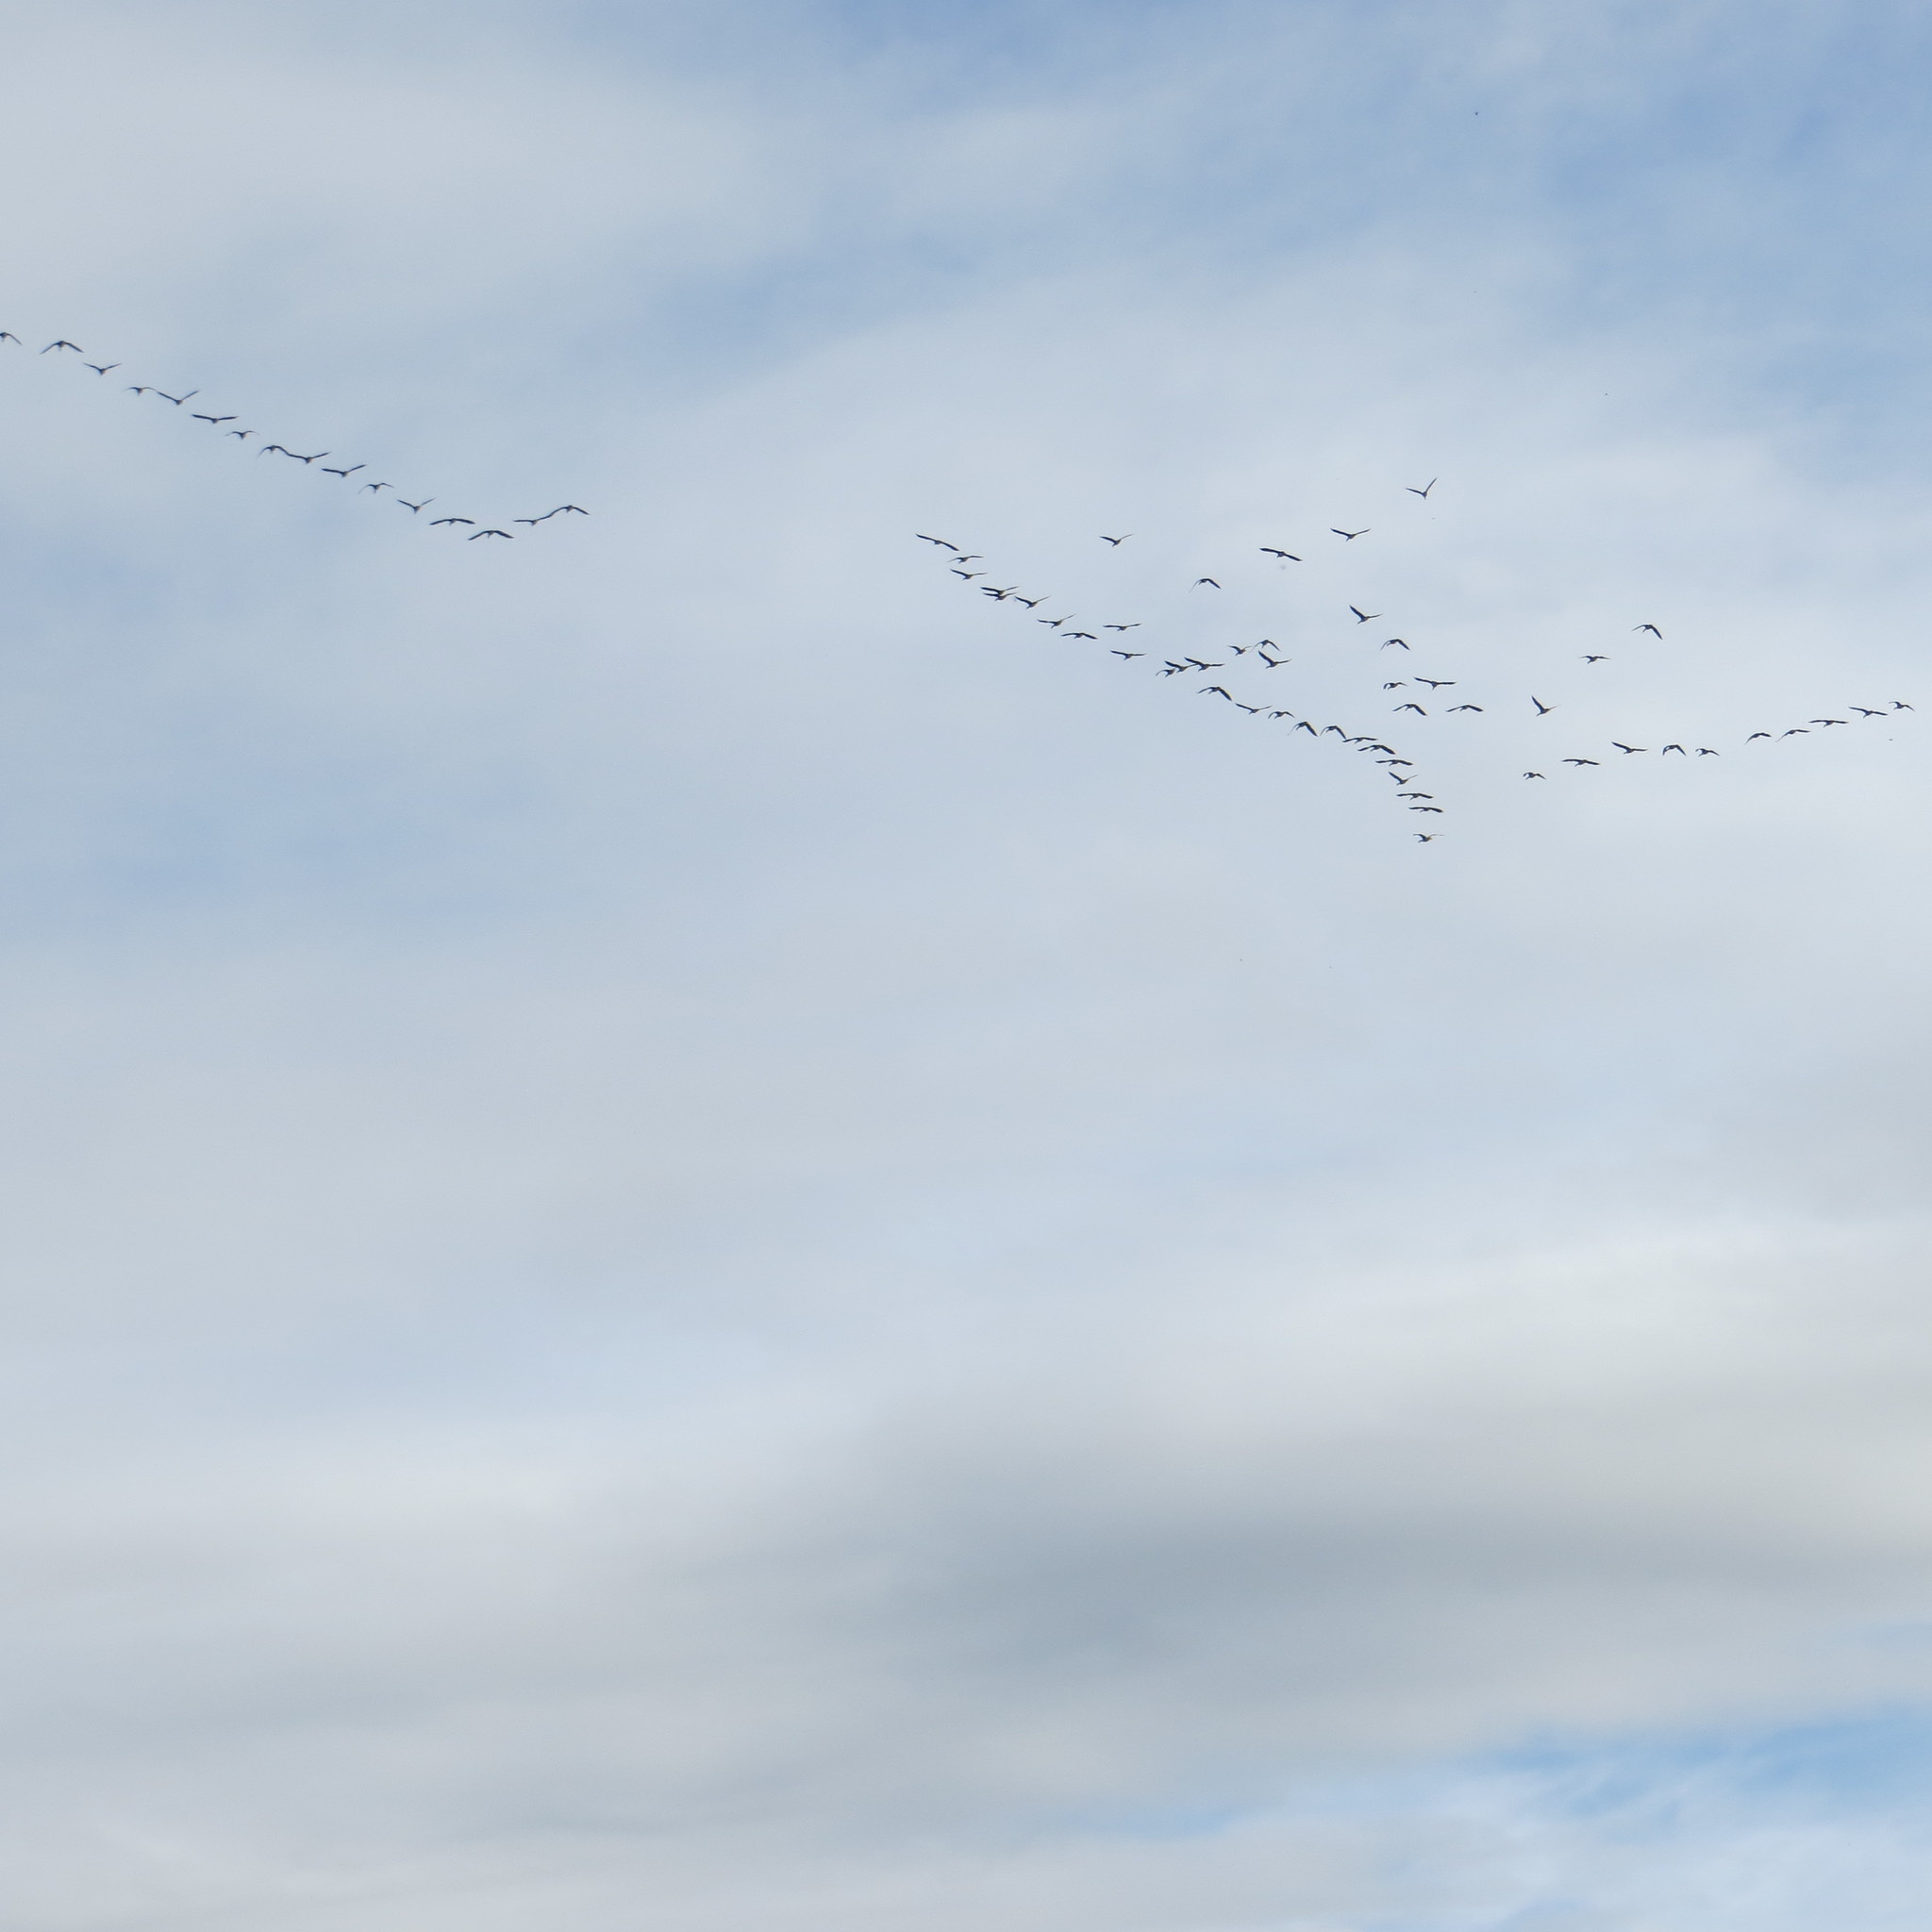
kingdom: Animalia
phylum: Chordata
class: Aves
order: Anseriformes
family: Anatidae
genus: Branta
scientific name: Branta canadensis
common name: Canada goose
